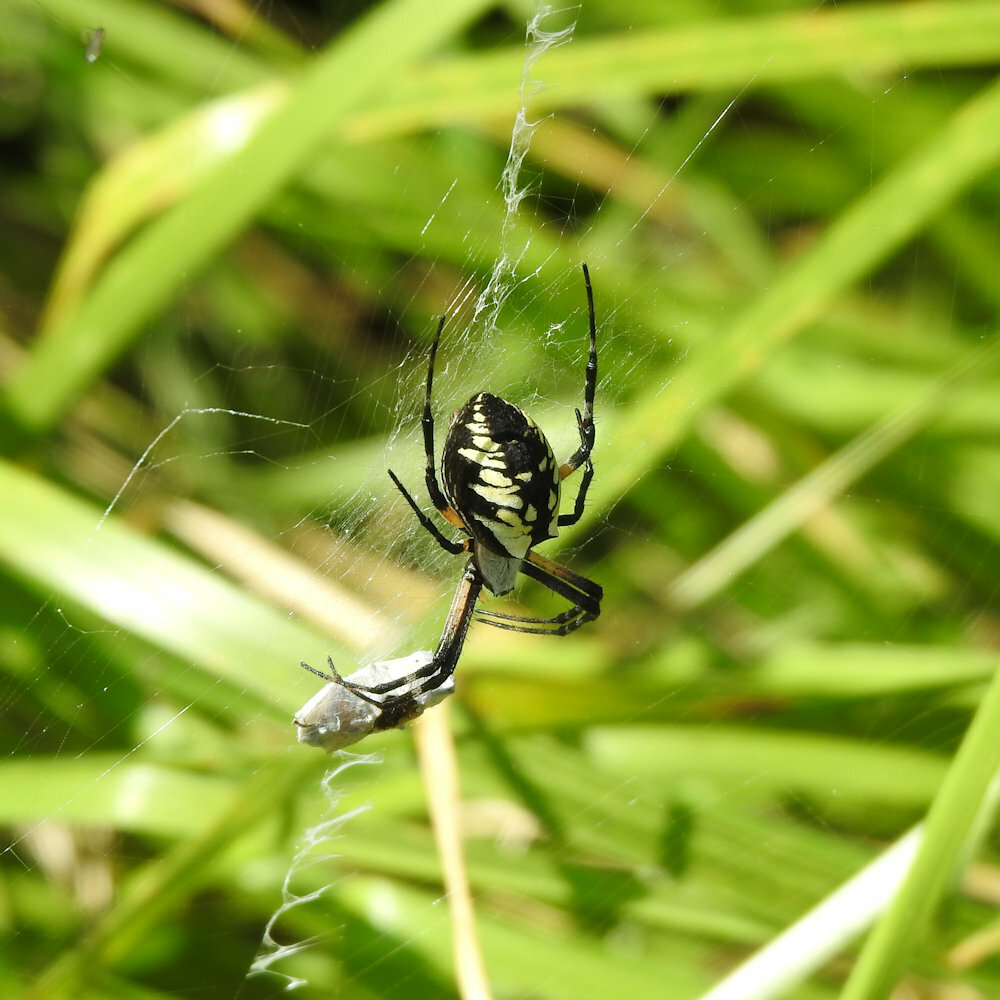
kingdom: Animalia
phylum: Arthropoda
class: Arachnida
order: Araneae
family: Araneidae
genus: Argiope
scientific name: Argiope aurantia
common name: Orb weavers
